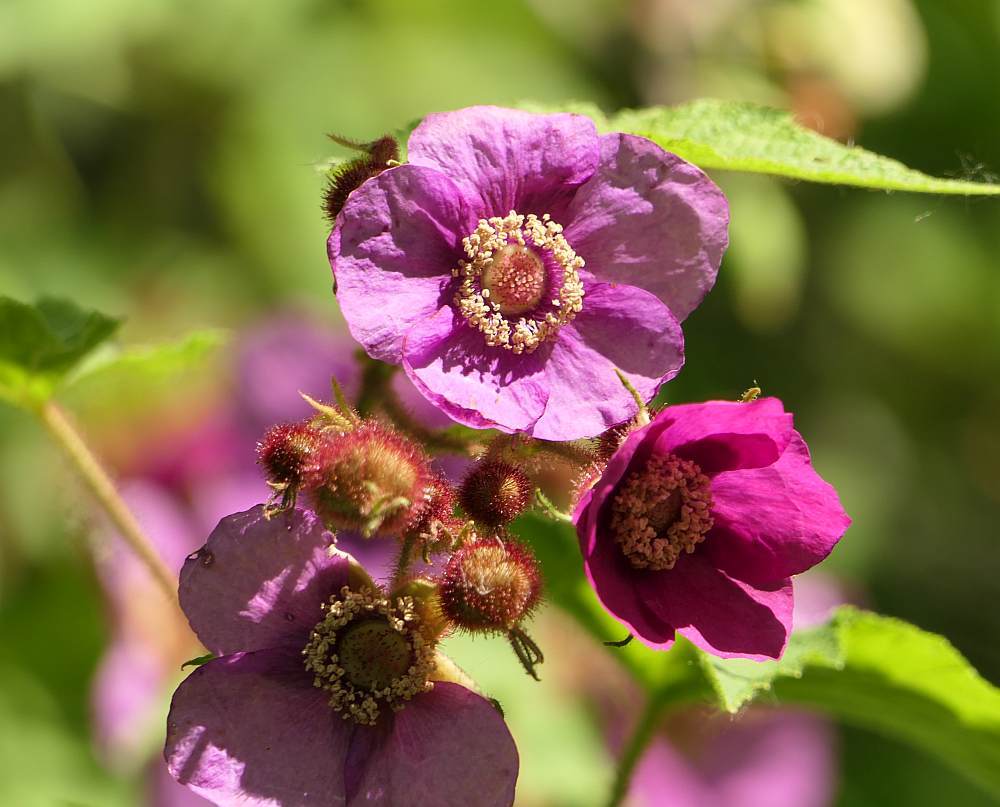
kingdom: Plantae
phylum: Tracheophyta
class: Magnoliopsida
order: Rosales
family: Rosaceae
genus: Rubus
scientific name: Rubus odoratus
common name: Purple-flowered raspberry
